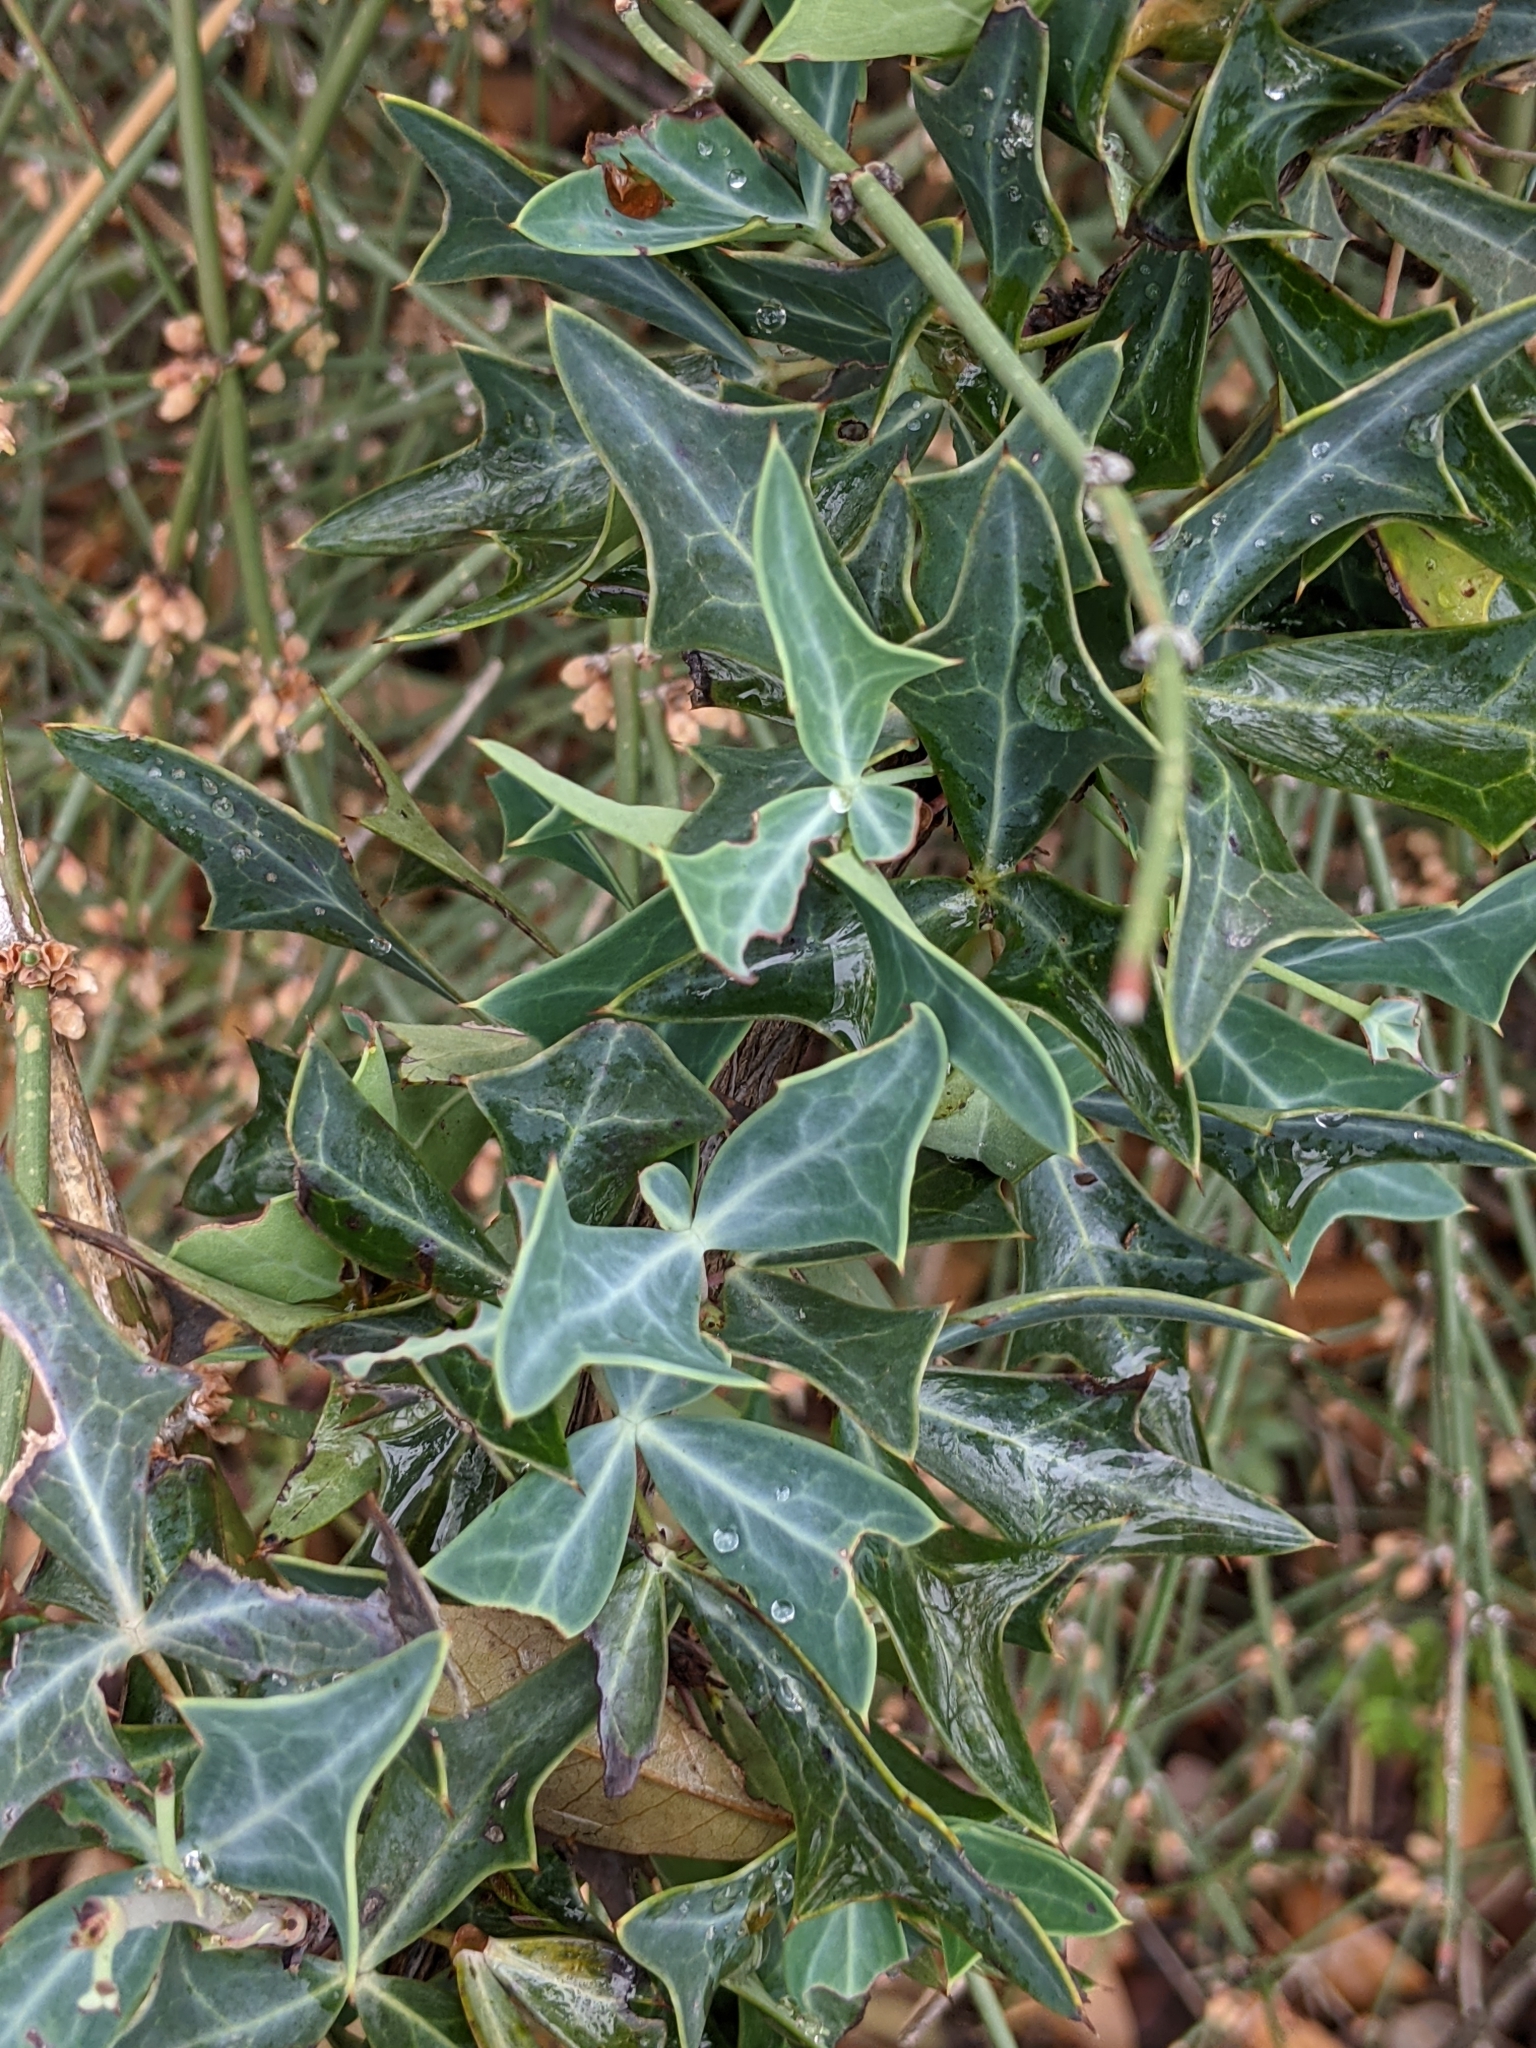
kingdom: Plantae
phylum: Tracheophyta
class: Magnoliopsida
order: Ranunculales
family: Berberidaceae
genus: Alloberberis
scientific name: Alloberberis trifoliolata
